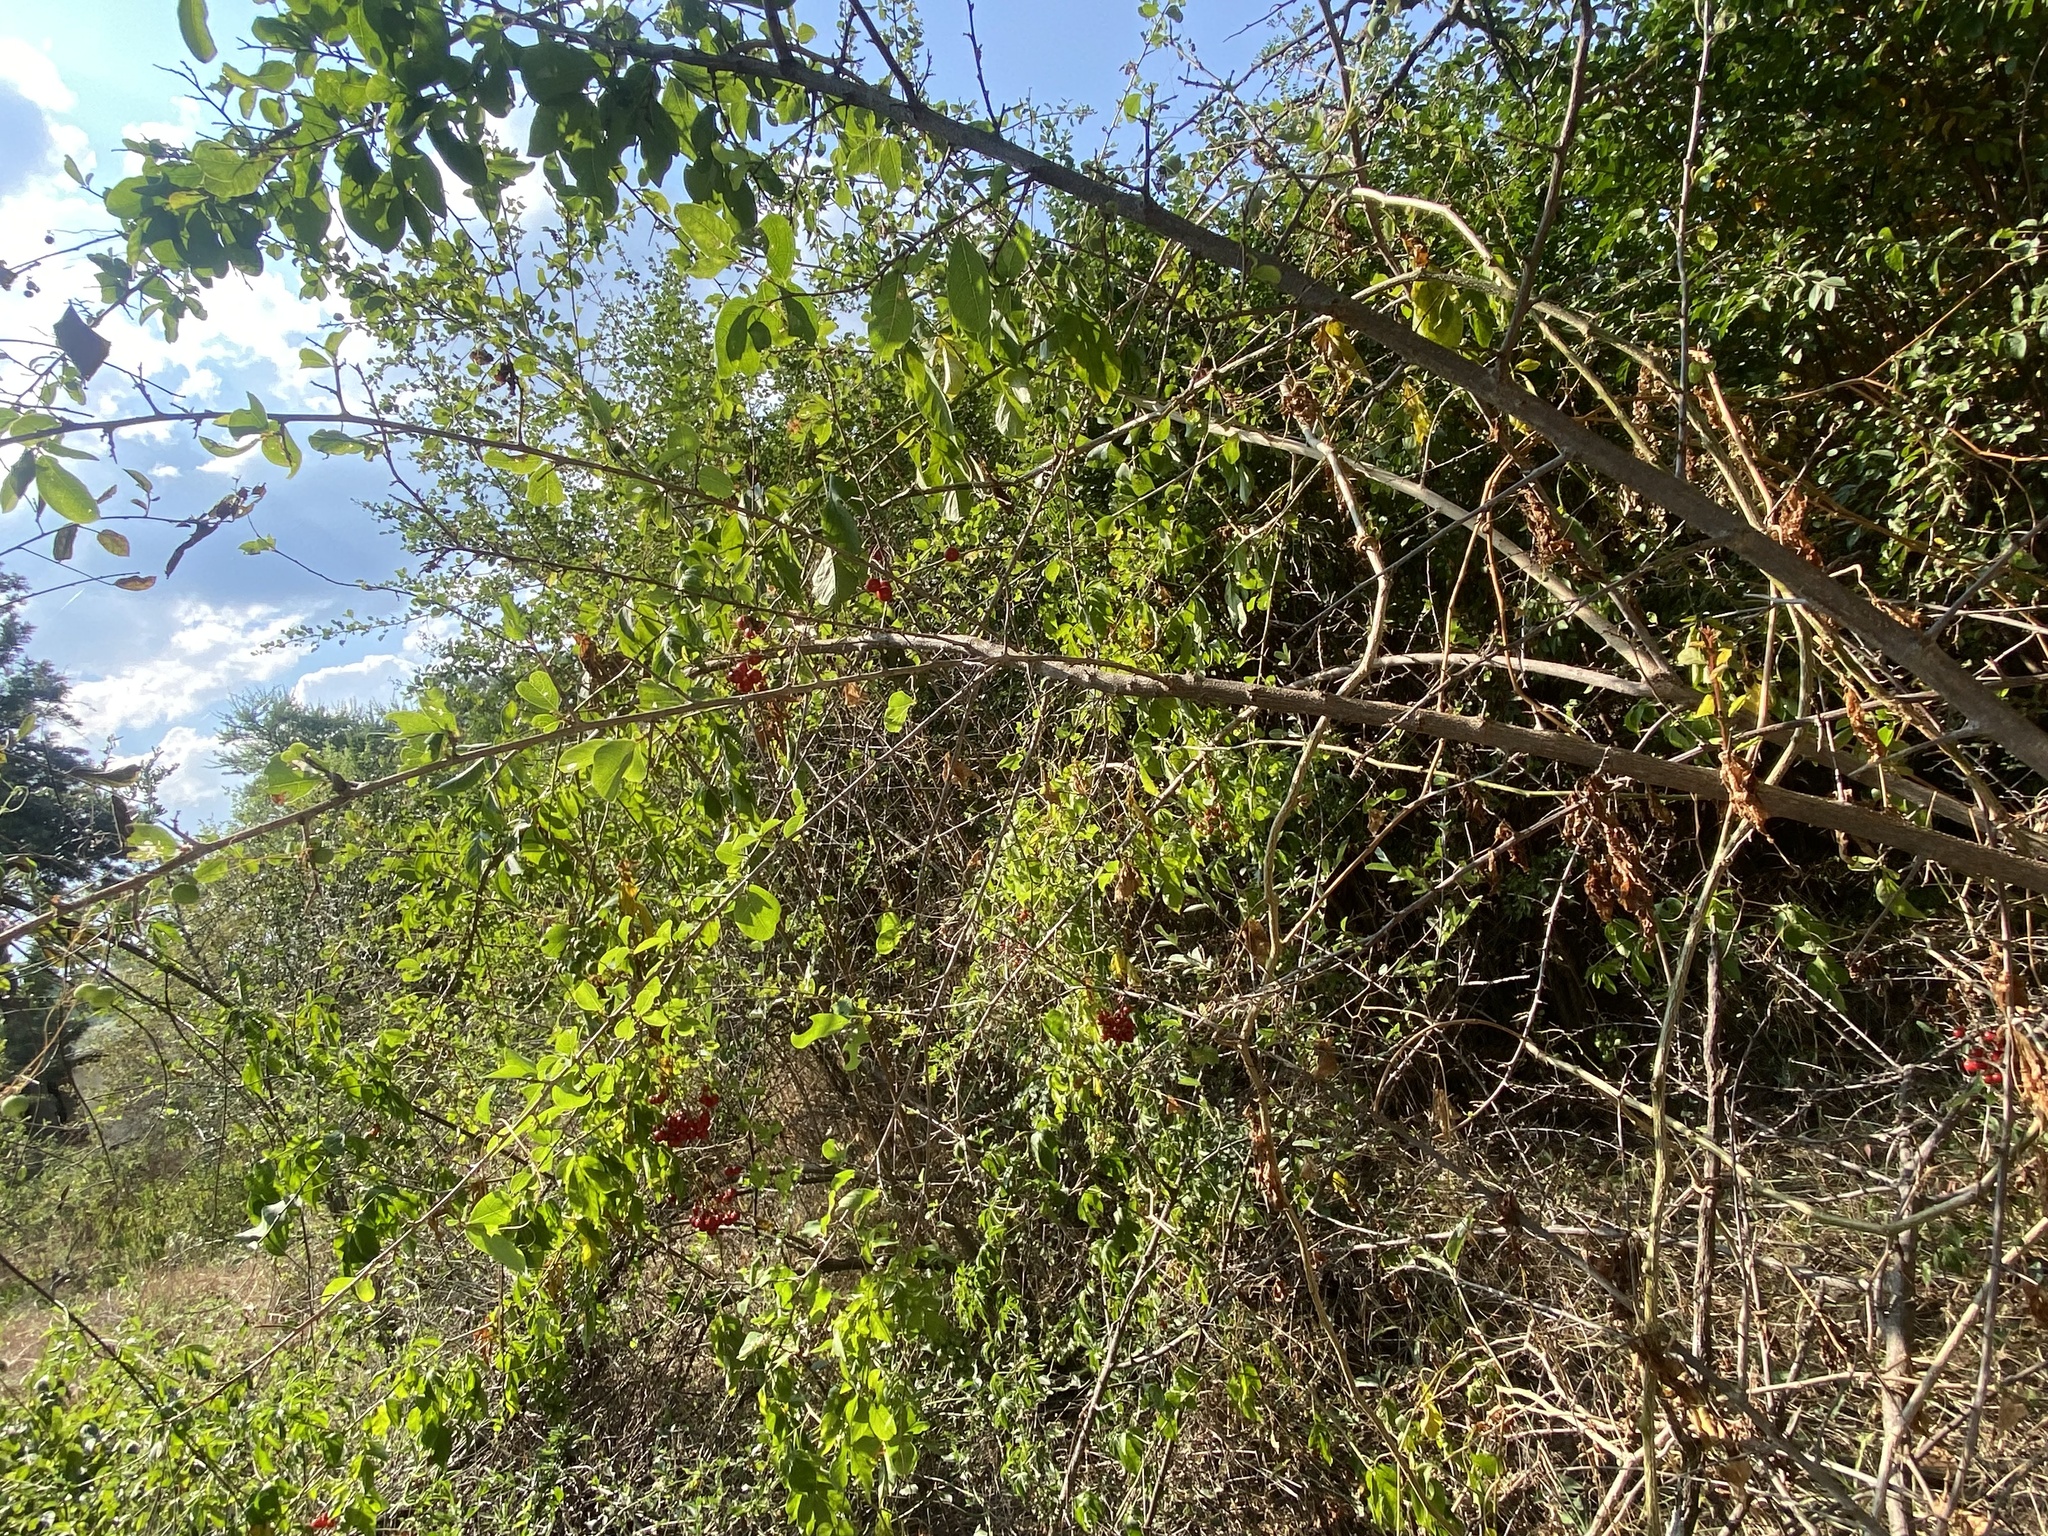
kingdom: Plantae
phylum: Tracheophyta
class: Magnoliopsida
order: Solanales
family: Solanaceae
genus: Solanum
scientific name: Solanum seaforthianum
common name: Brazilian nightshade
